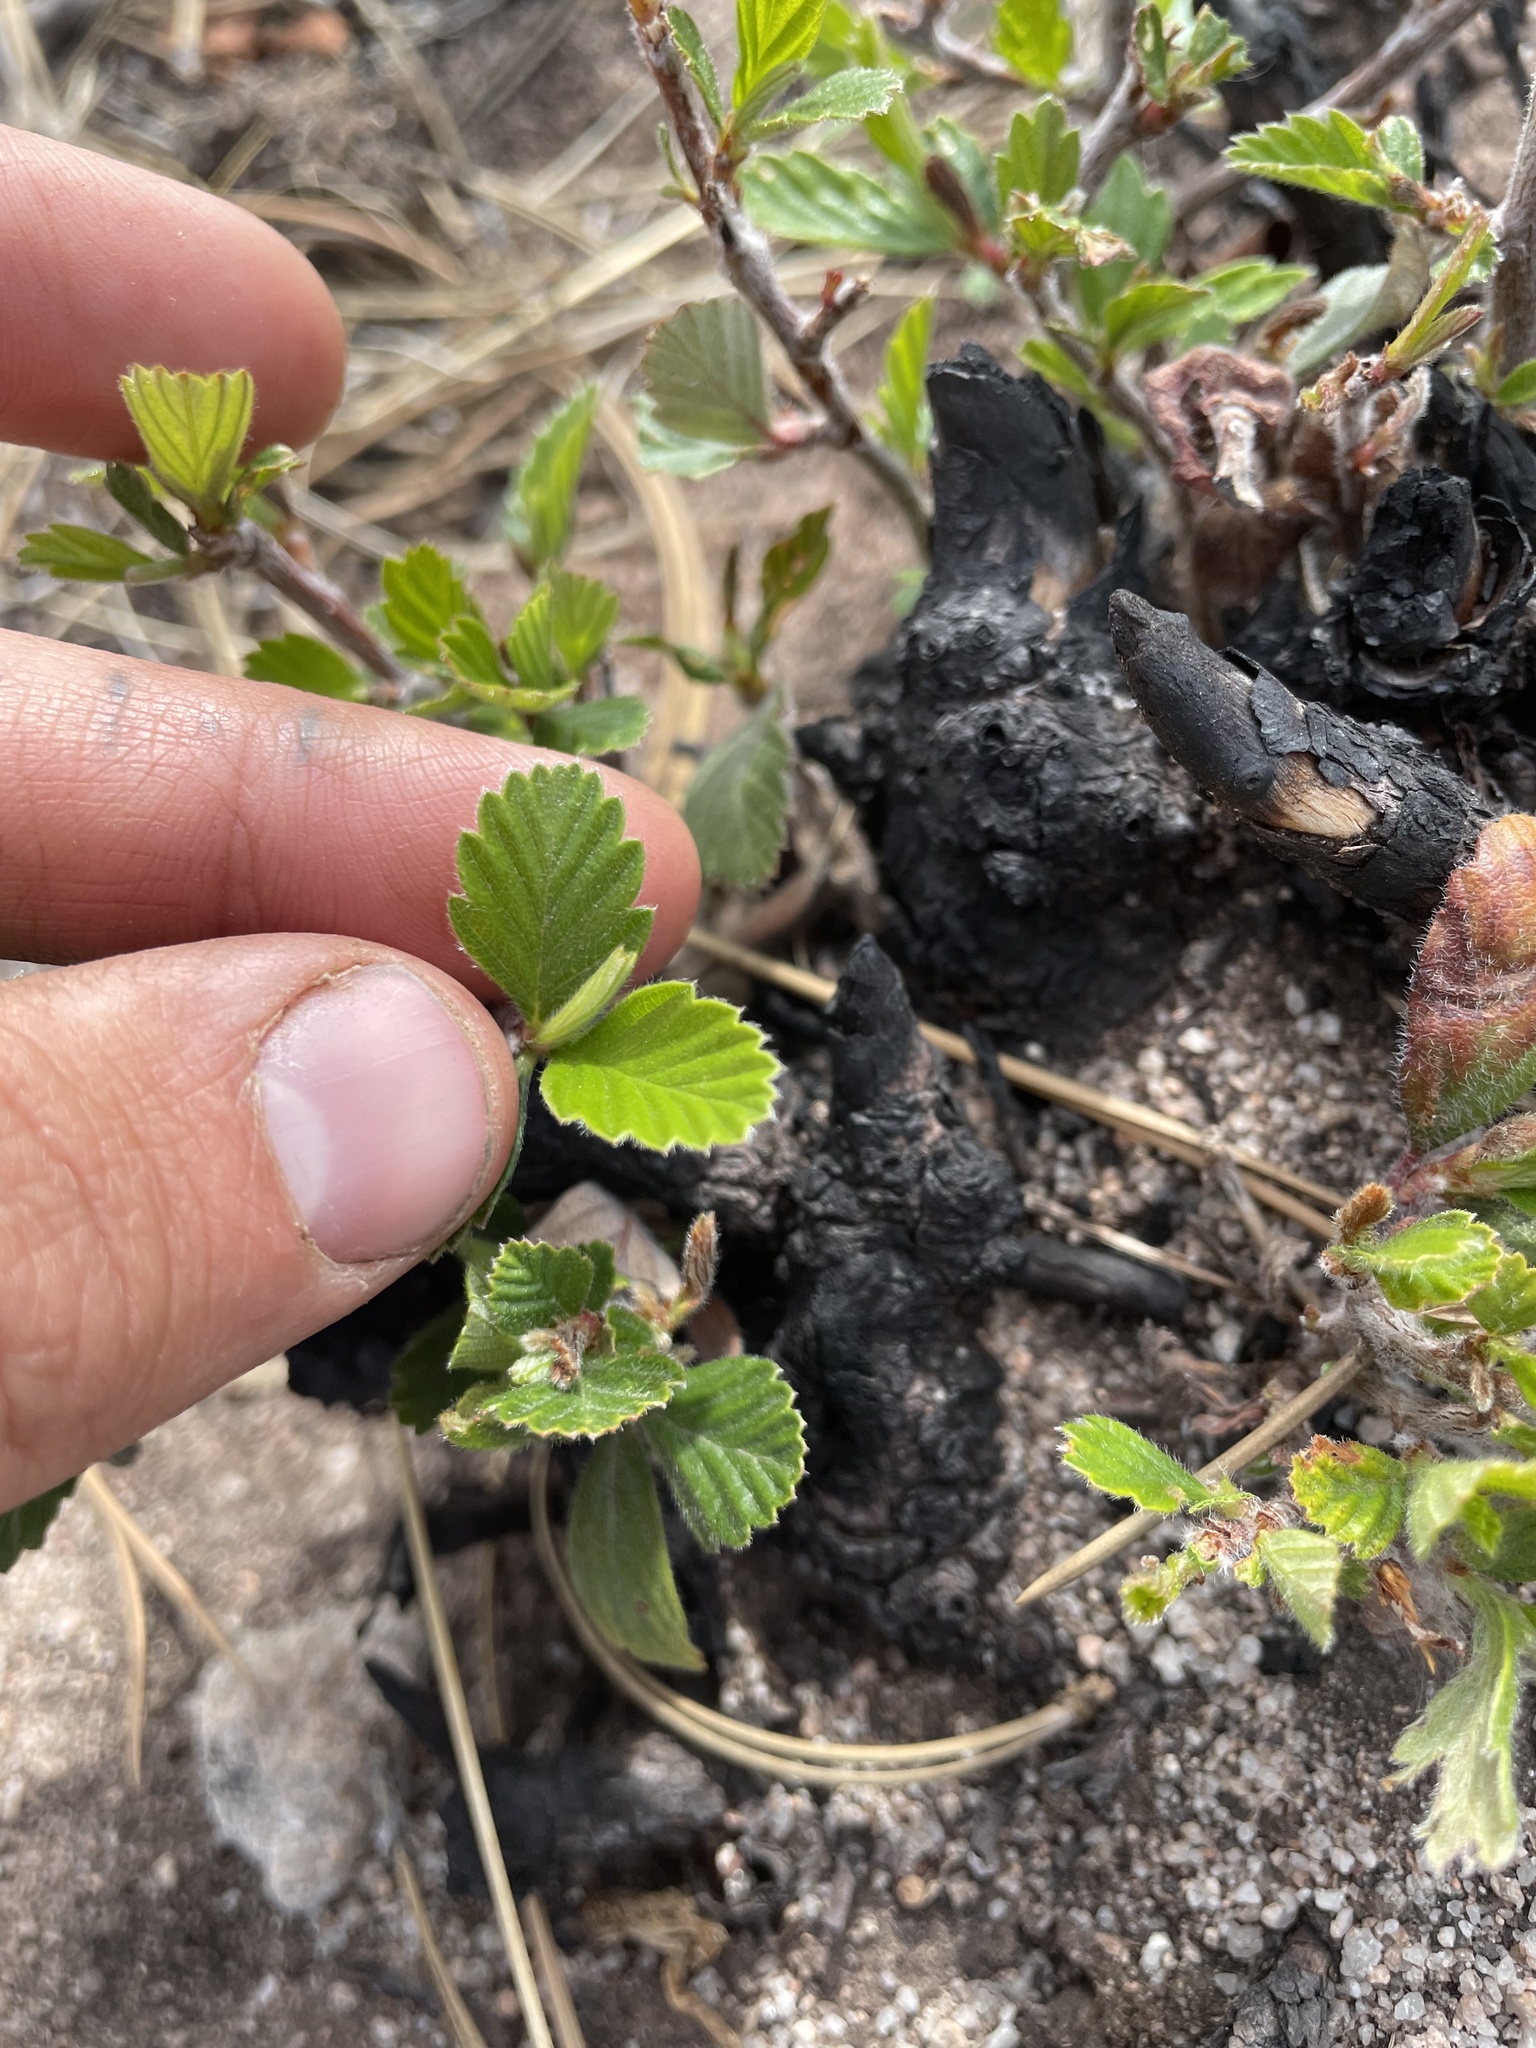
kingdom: Plantae
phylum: Tracheophyta
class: Magnoliopsida
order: Rosales
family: Rosaceae
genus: Cercocarpus
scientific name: Cercocarpus montanus
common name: Alder-leaf cercocarpus
